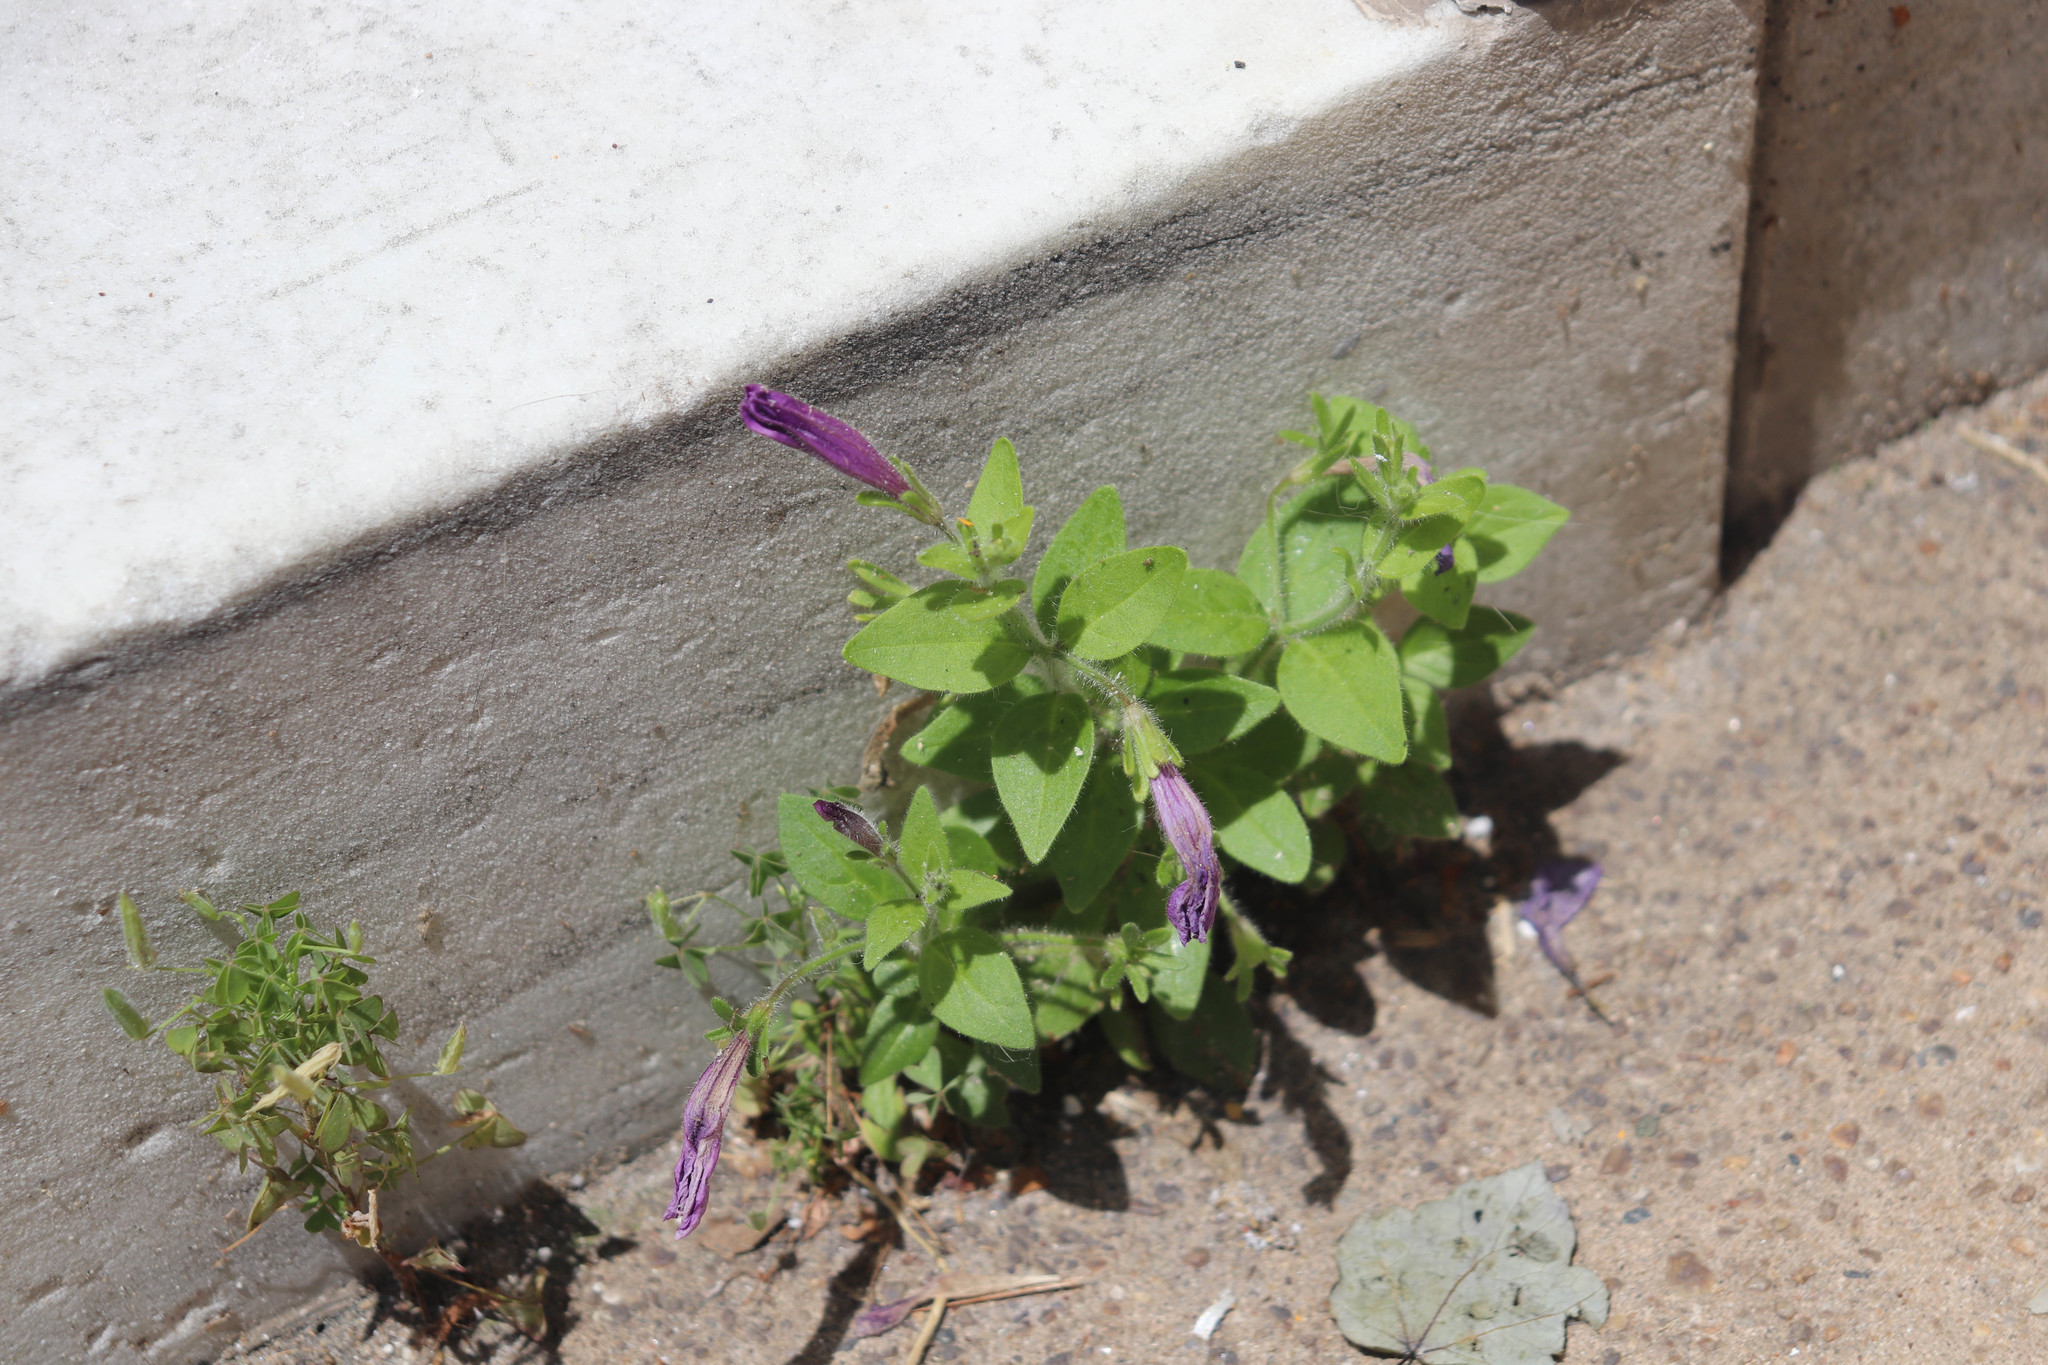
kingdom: Plantae
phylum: Tracheophyta
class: Magnoliopsida
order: Solanales
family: Solanaceae
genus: Petunia
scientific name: Petunia atkinsiana
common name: Petunia
